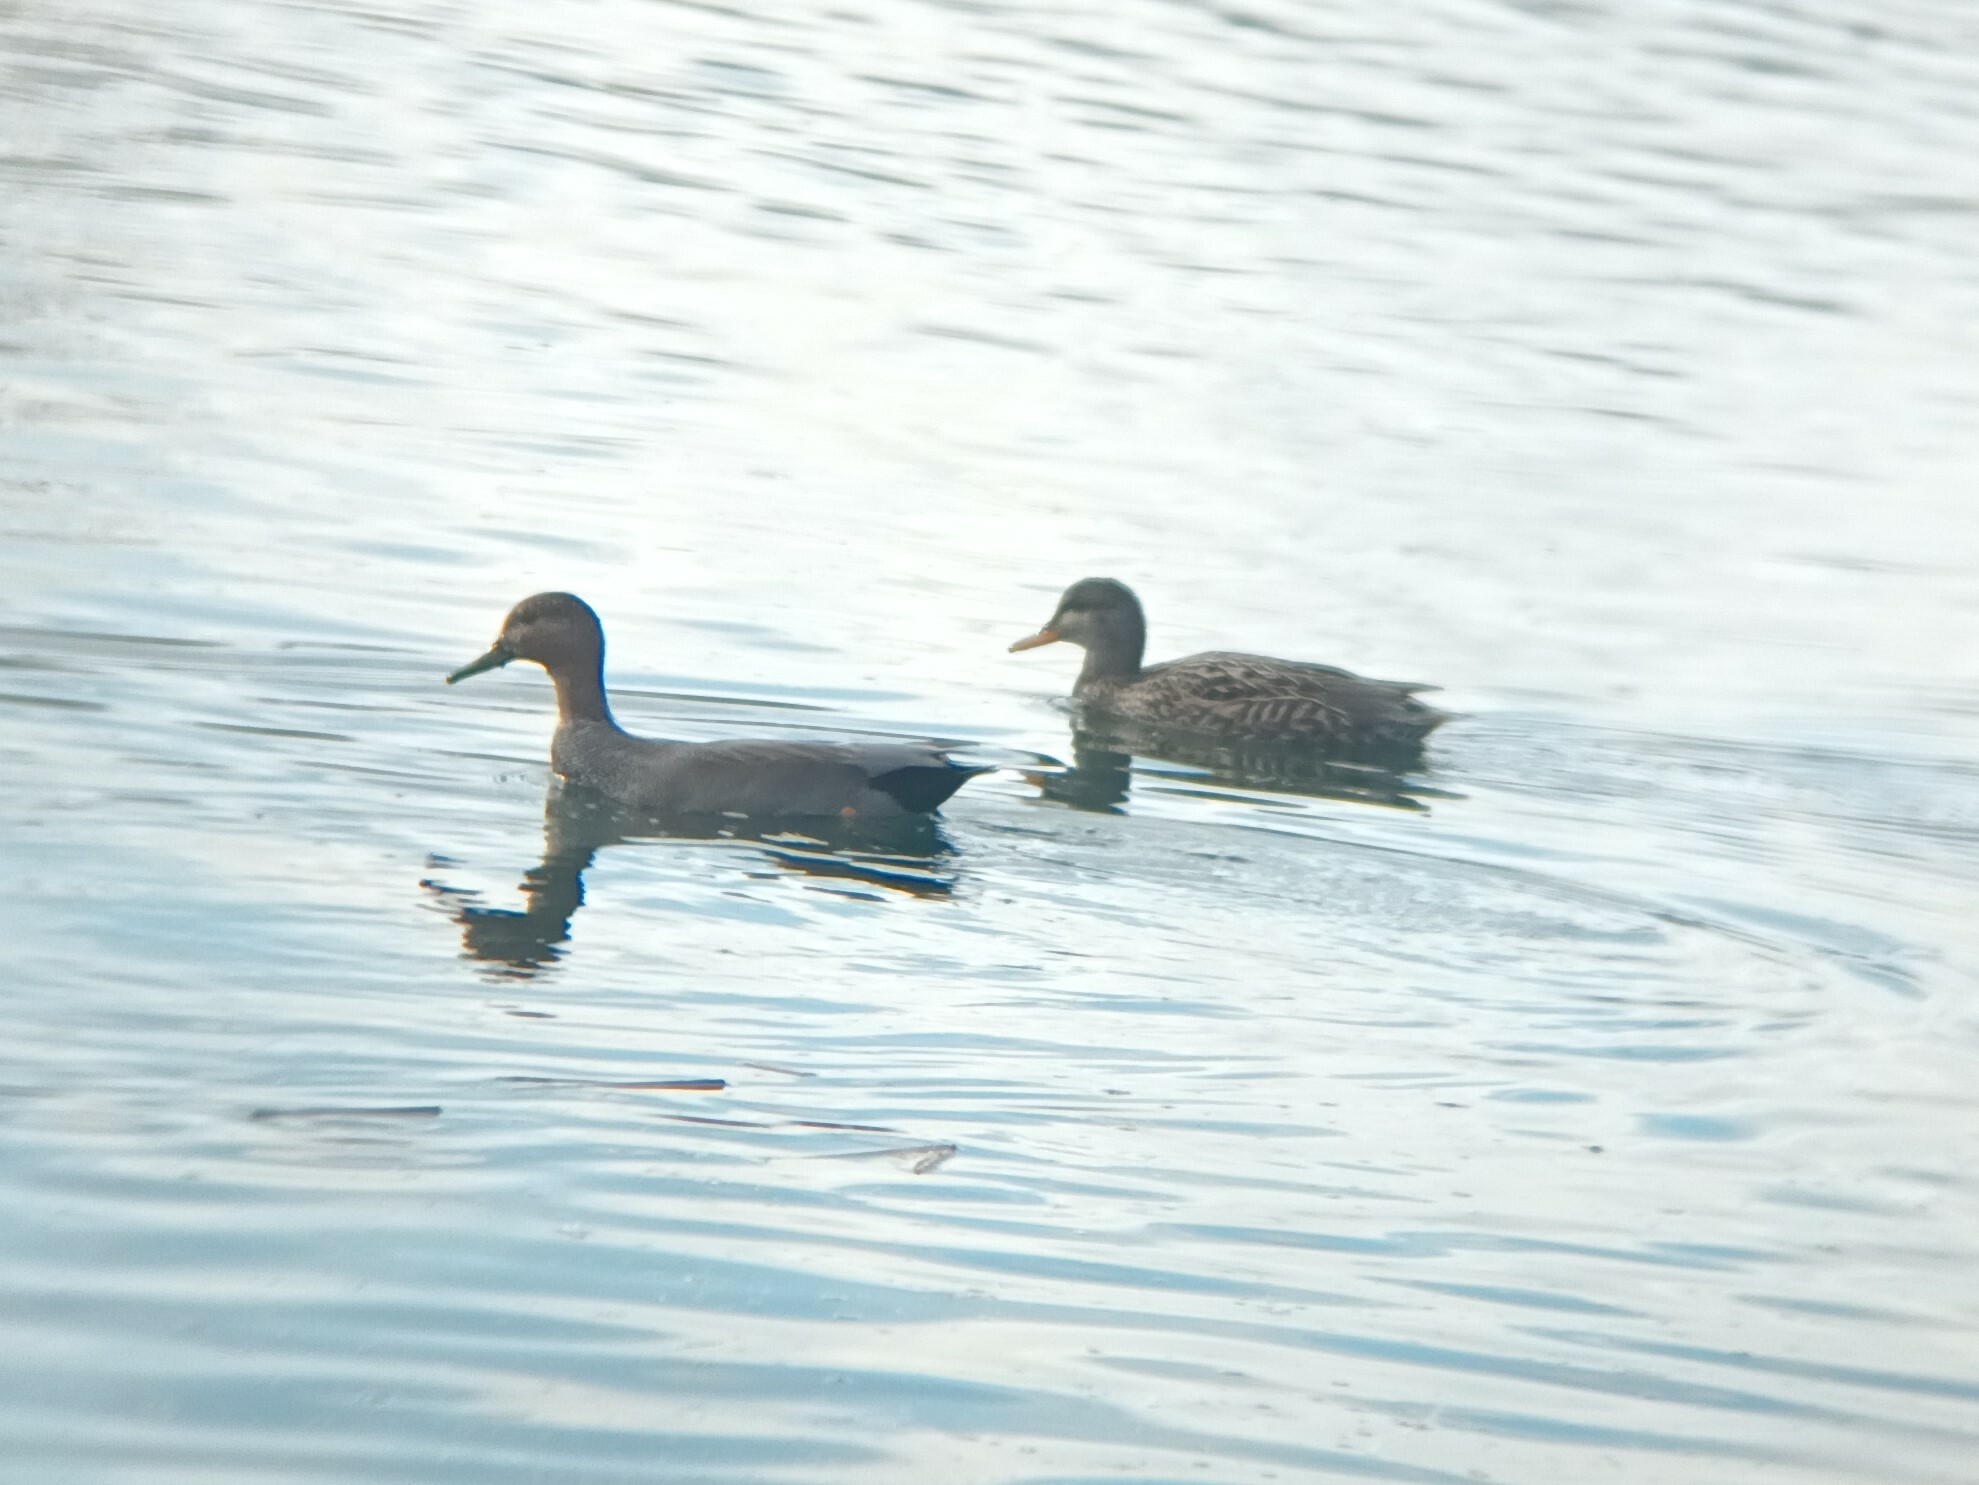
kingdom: Animalia
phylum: Chordata
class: Aves
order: Anseriformes
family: Anatidae
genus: Mareca
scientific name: Mareca strepera
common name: Gadwall
